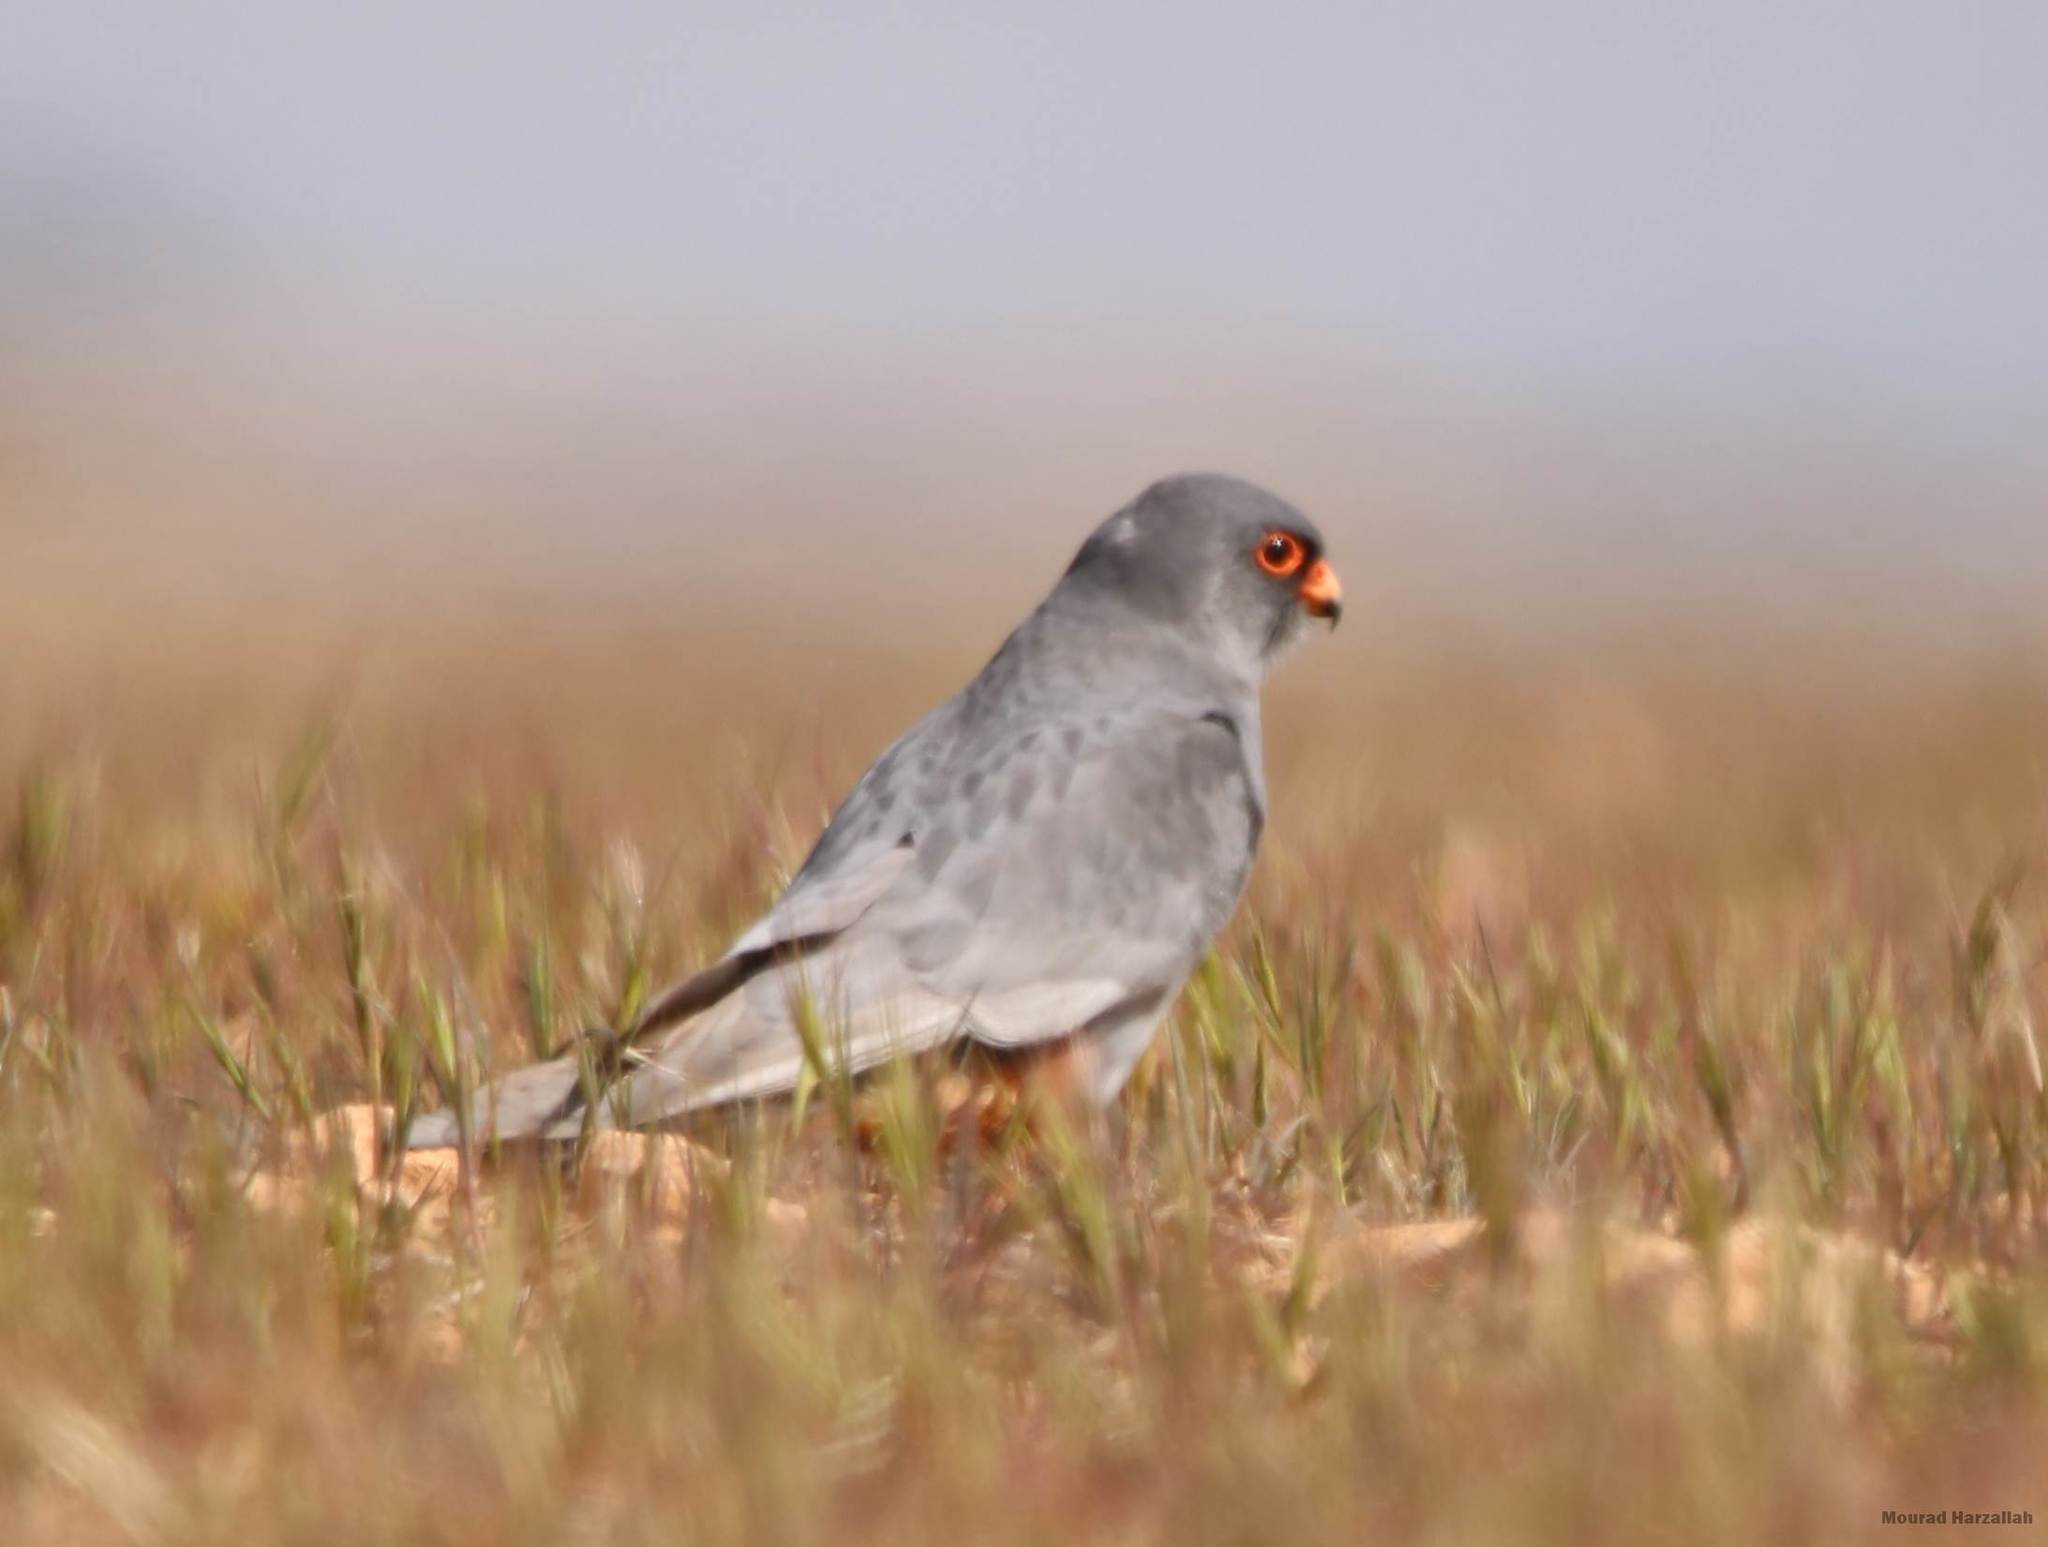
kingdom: Animalia
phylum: Chordata
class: Aves
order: Falconiformes
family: Falconidae
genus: Falco
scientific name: Falco vespertinus
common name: Red-footed falcon
